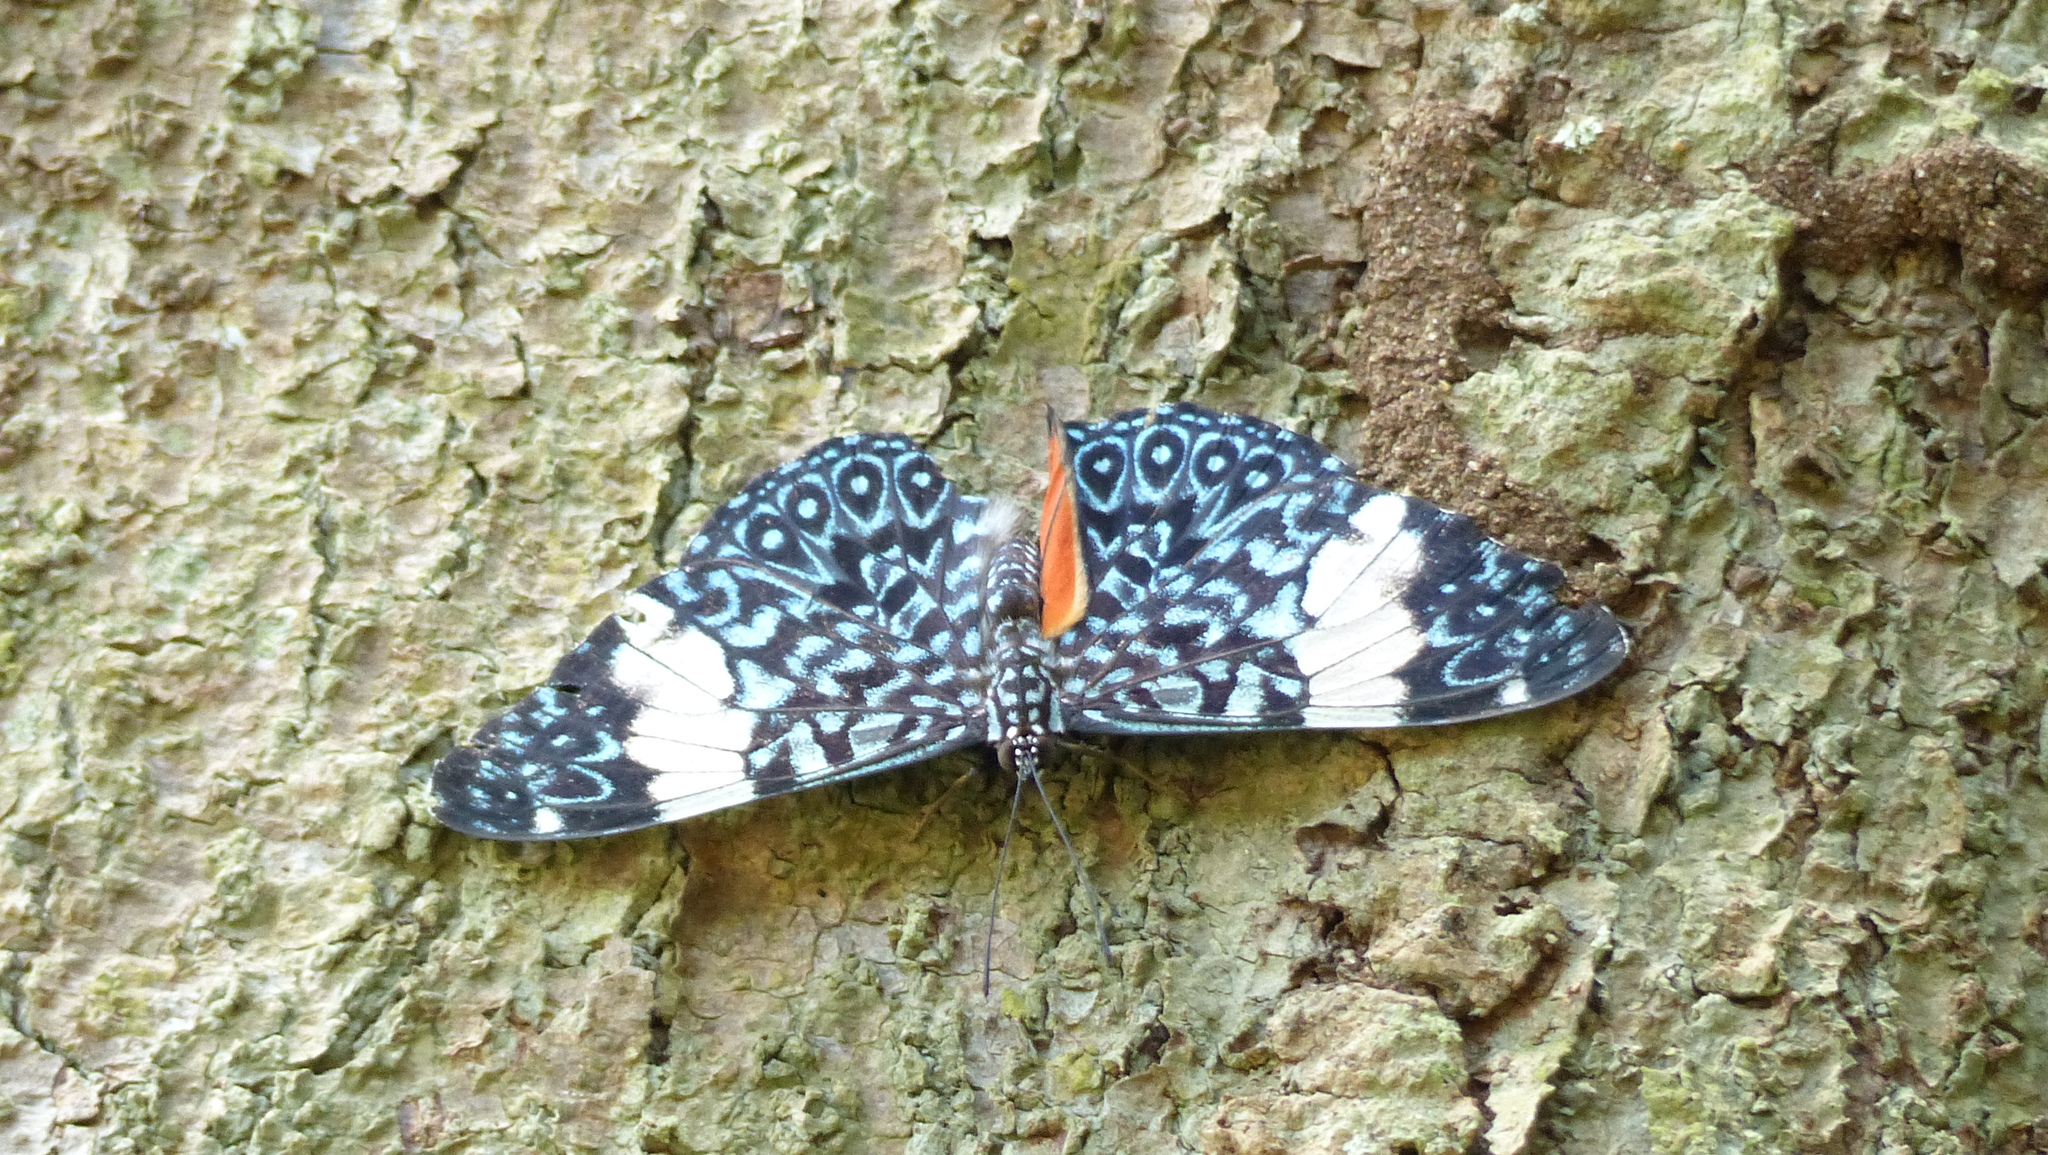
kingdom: Animalia
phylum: Arthropoda
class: Insecta
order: Lepidoptera
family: Nymphalidae
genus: Hamadryas
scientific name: Hamadryas amphinome
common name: Red cracker
